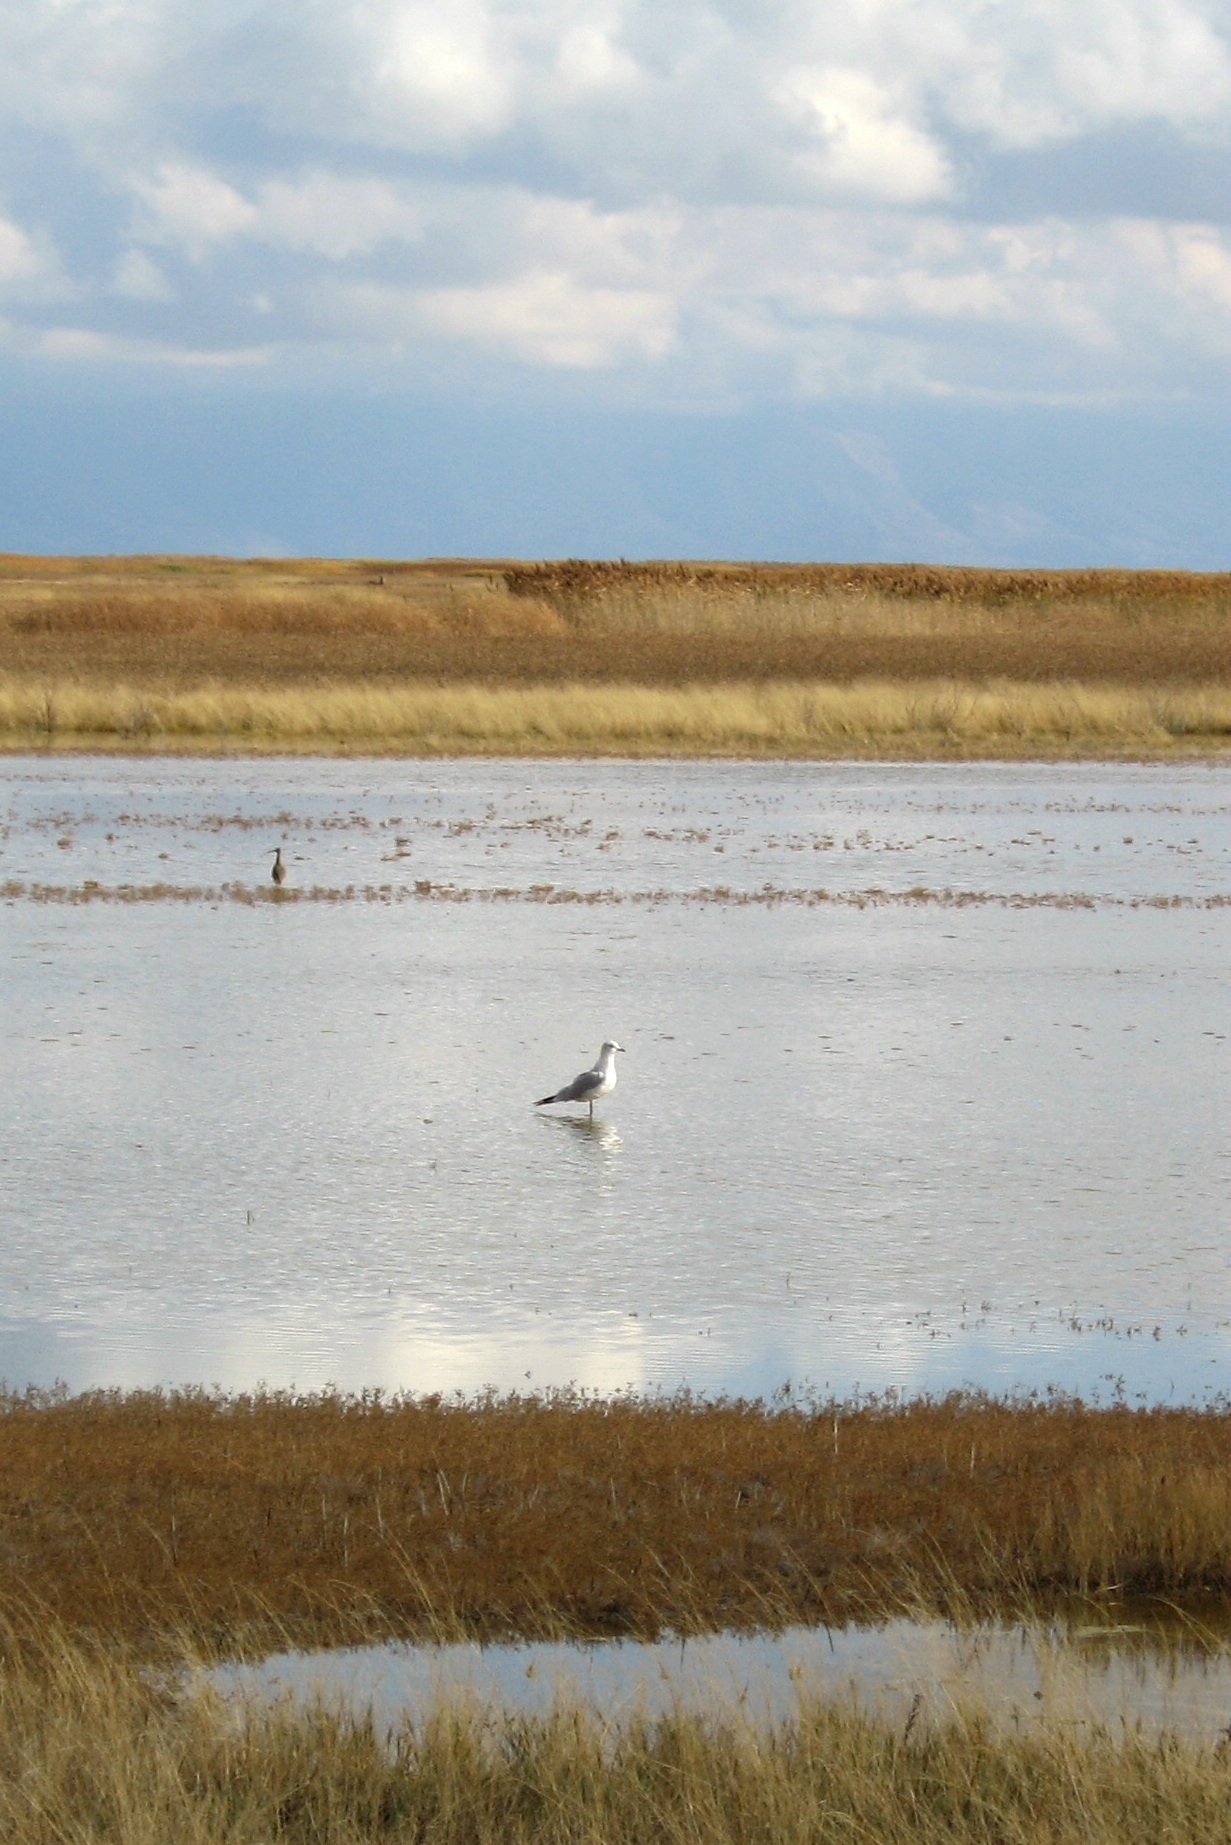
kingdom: Animalia
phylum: Chordata
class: Aves
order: Charadriiformes
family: Laridae
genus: Larus
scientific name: Larus delawarensis
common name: Ring-billed gull
